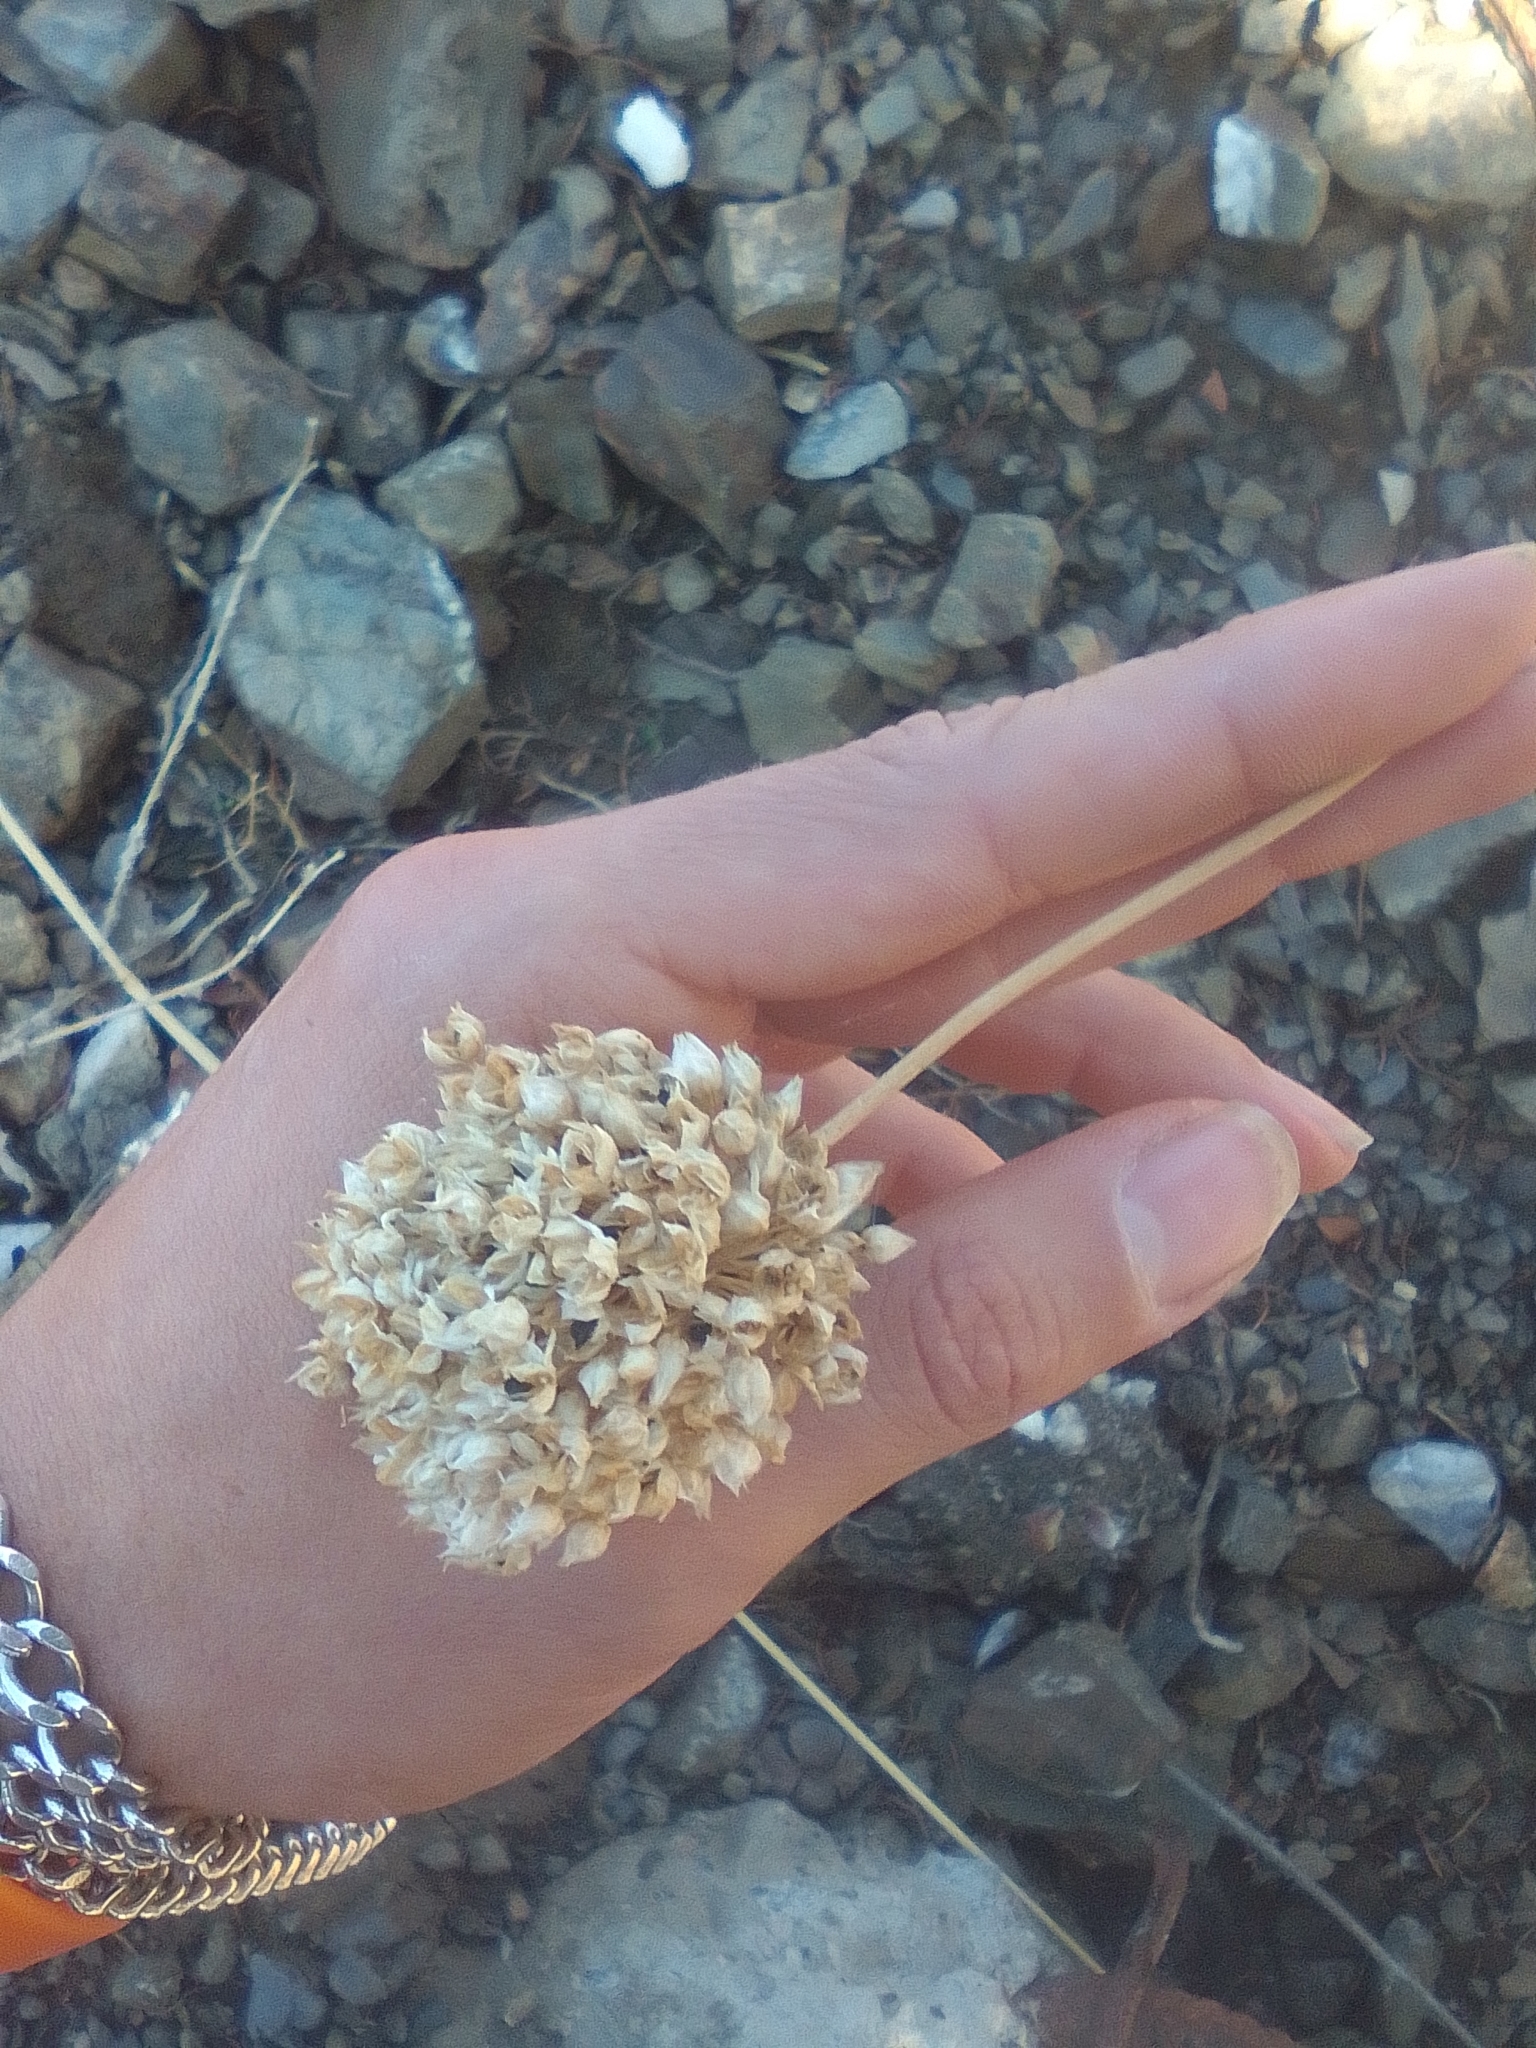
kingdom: Plantae
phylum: Tracheophyta
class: Liliopsida
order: Asparagales
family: Amaryllidaceae
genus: Allium
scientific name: Allium rotundum
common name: Sand leek
